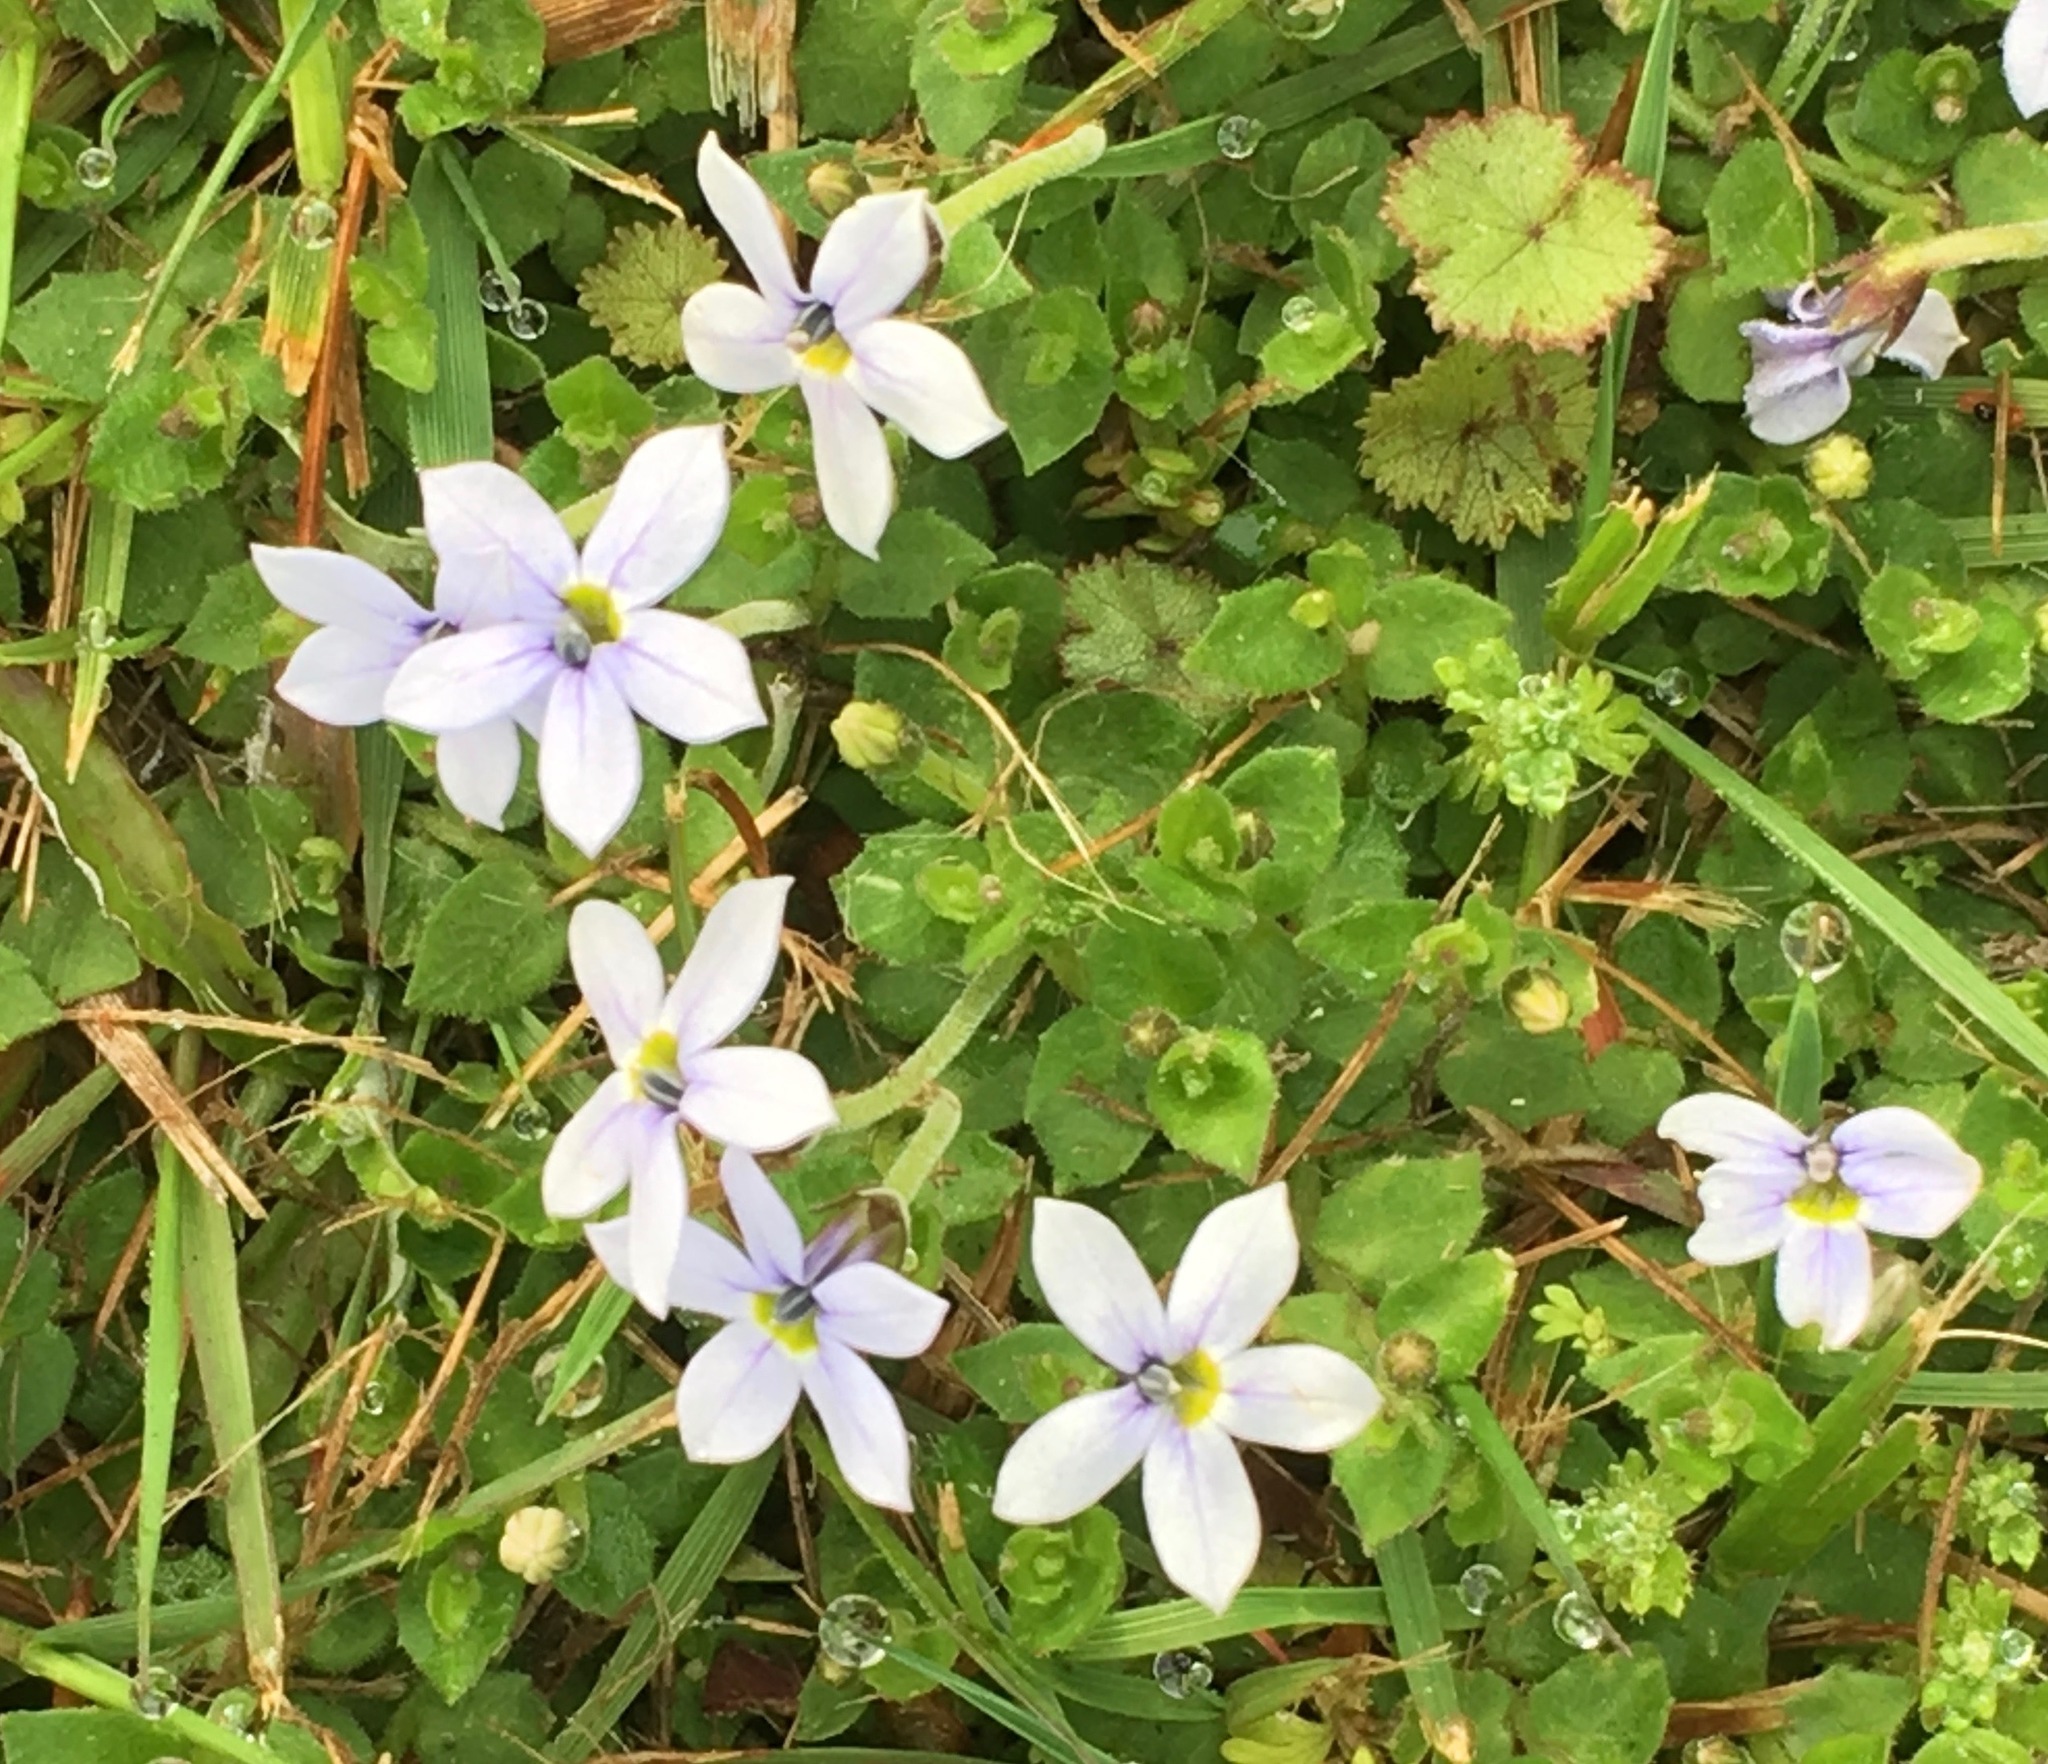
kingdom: Plantae
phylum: Tracheophyta
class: Magnoliopsida
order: Asterales
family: Campanulaceae
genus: Lobelia
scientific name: Lobelia pedunculata
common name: Matted pratia
